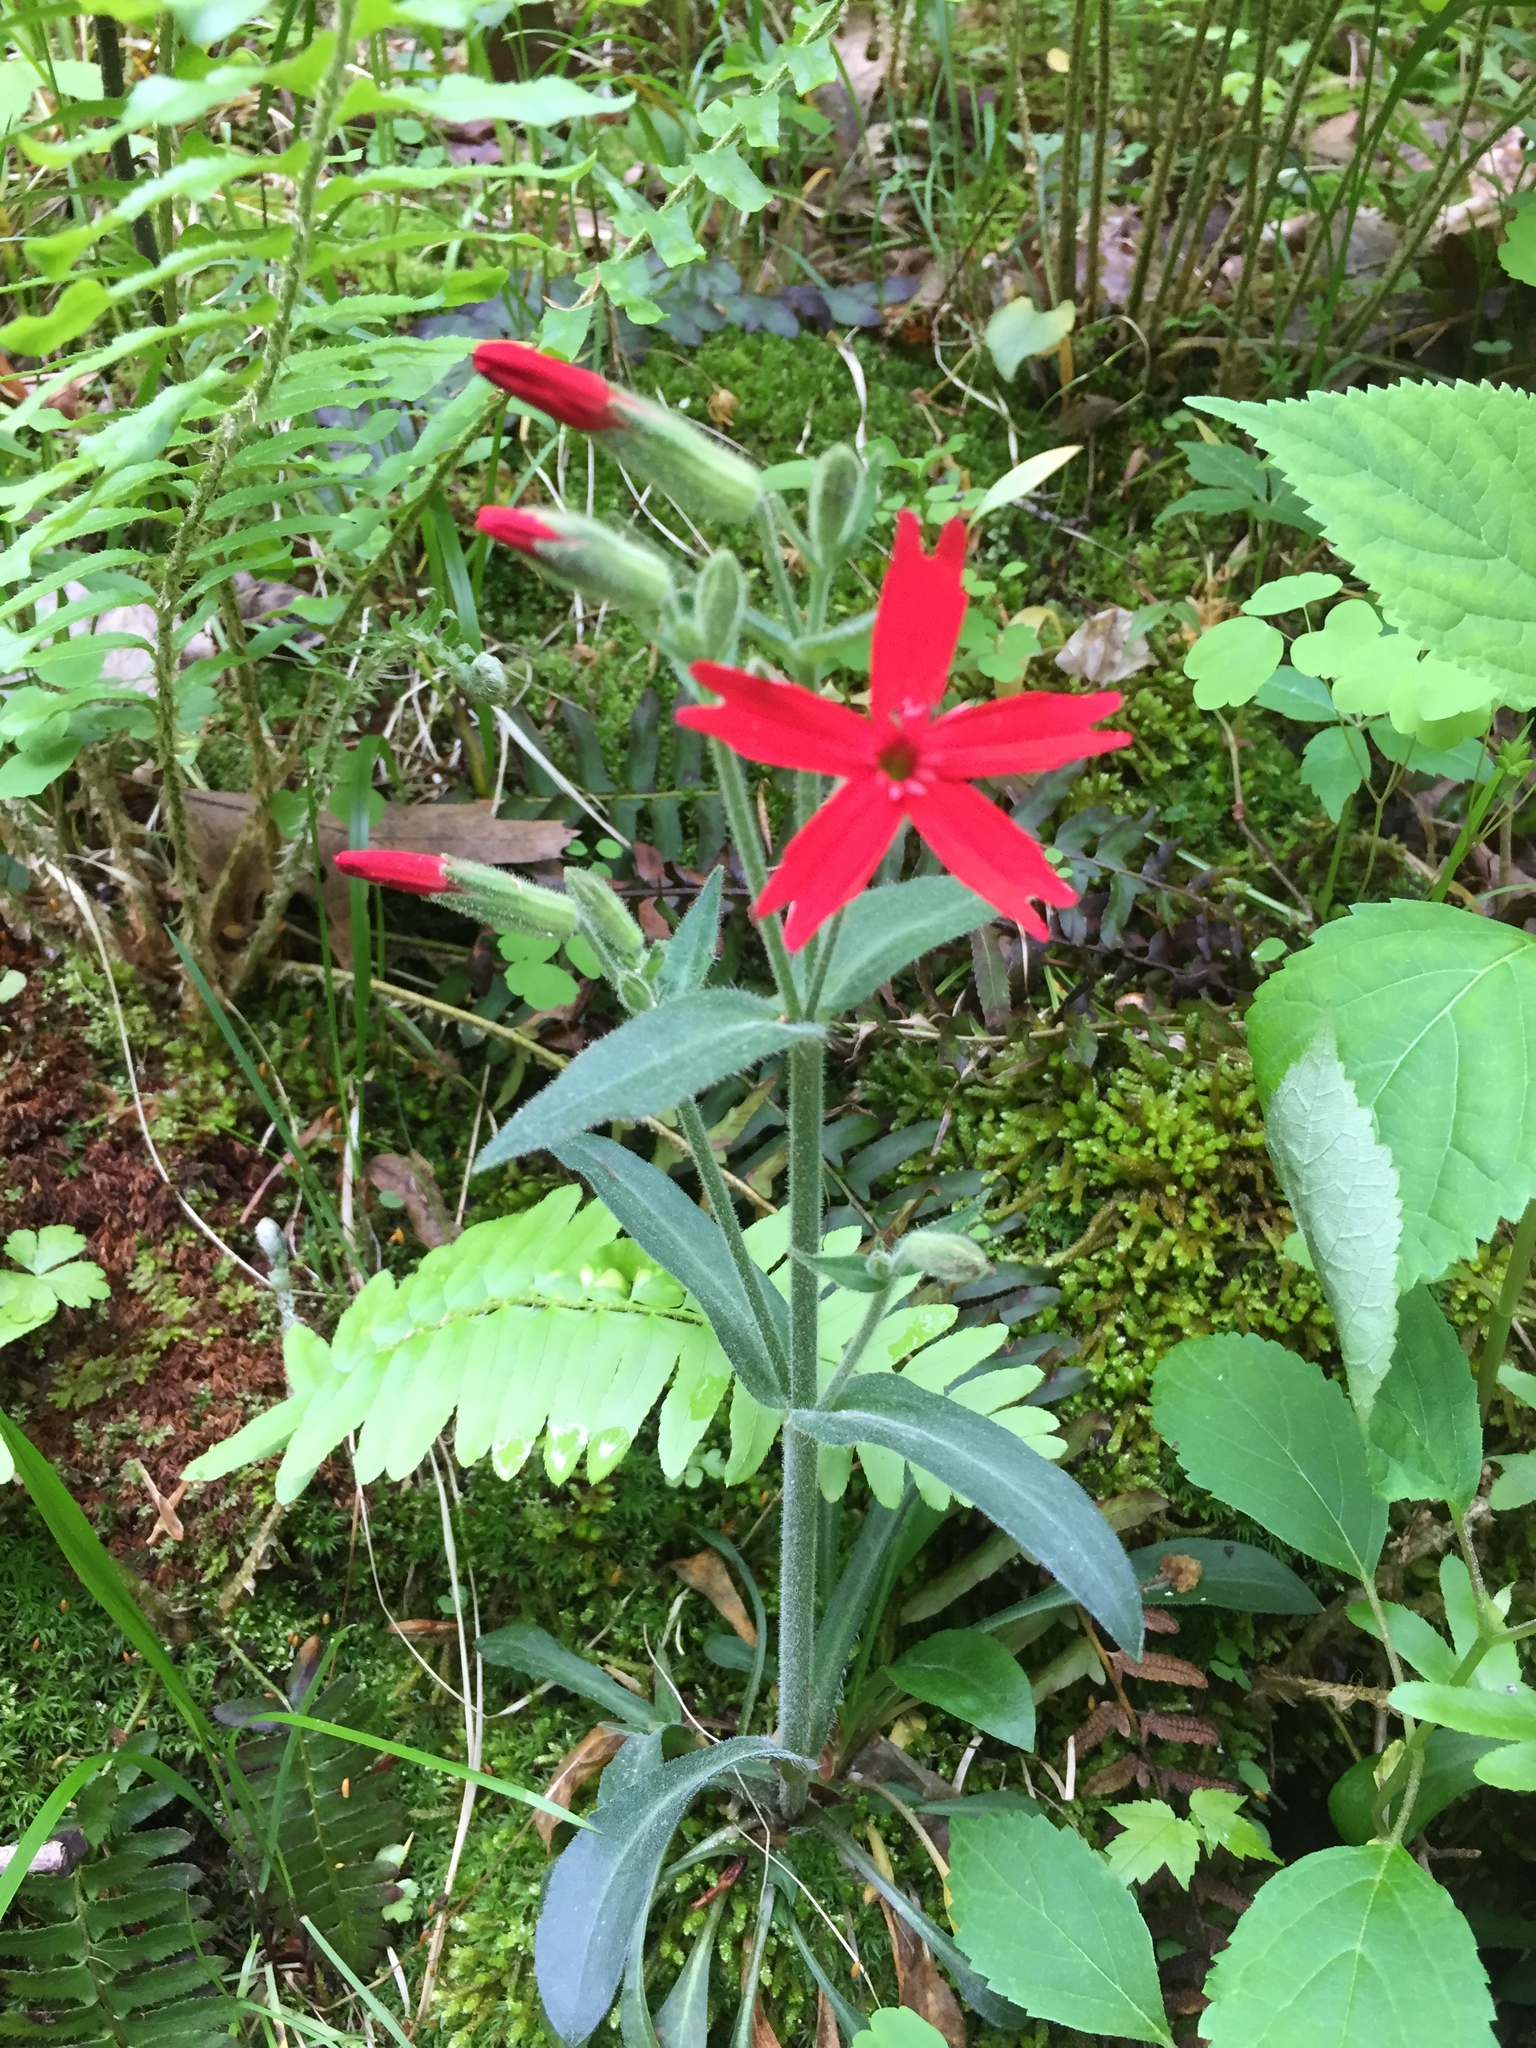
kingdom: Plantae
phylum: Tracheophyta
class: Magnoliopsida
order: Caryophyllales
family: Caryophyllaceae
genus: Silene
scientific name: Silene virginica
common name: Fire-pink
